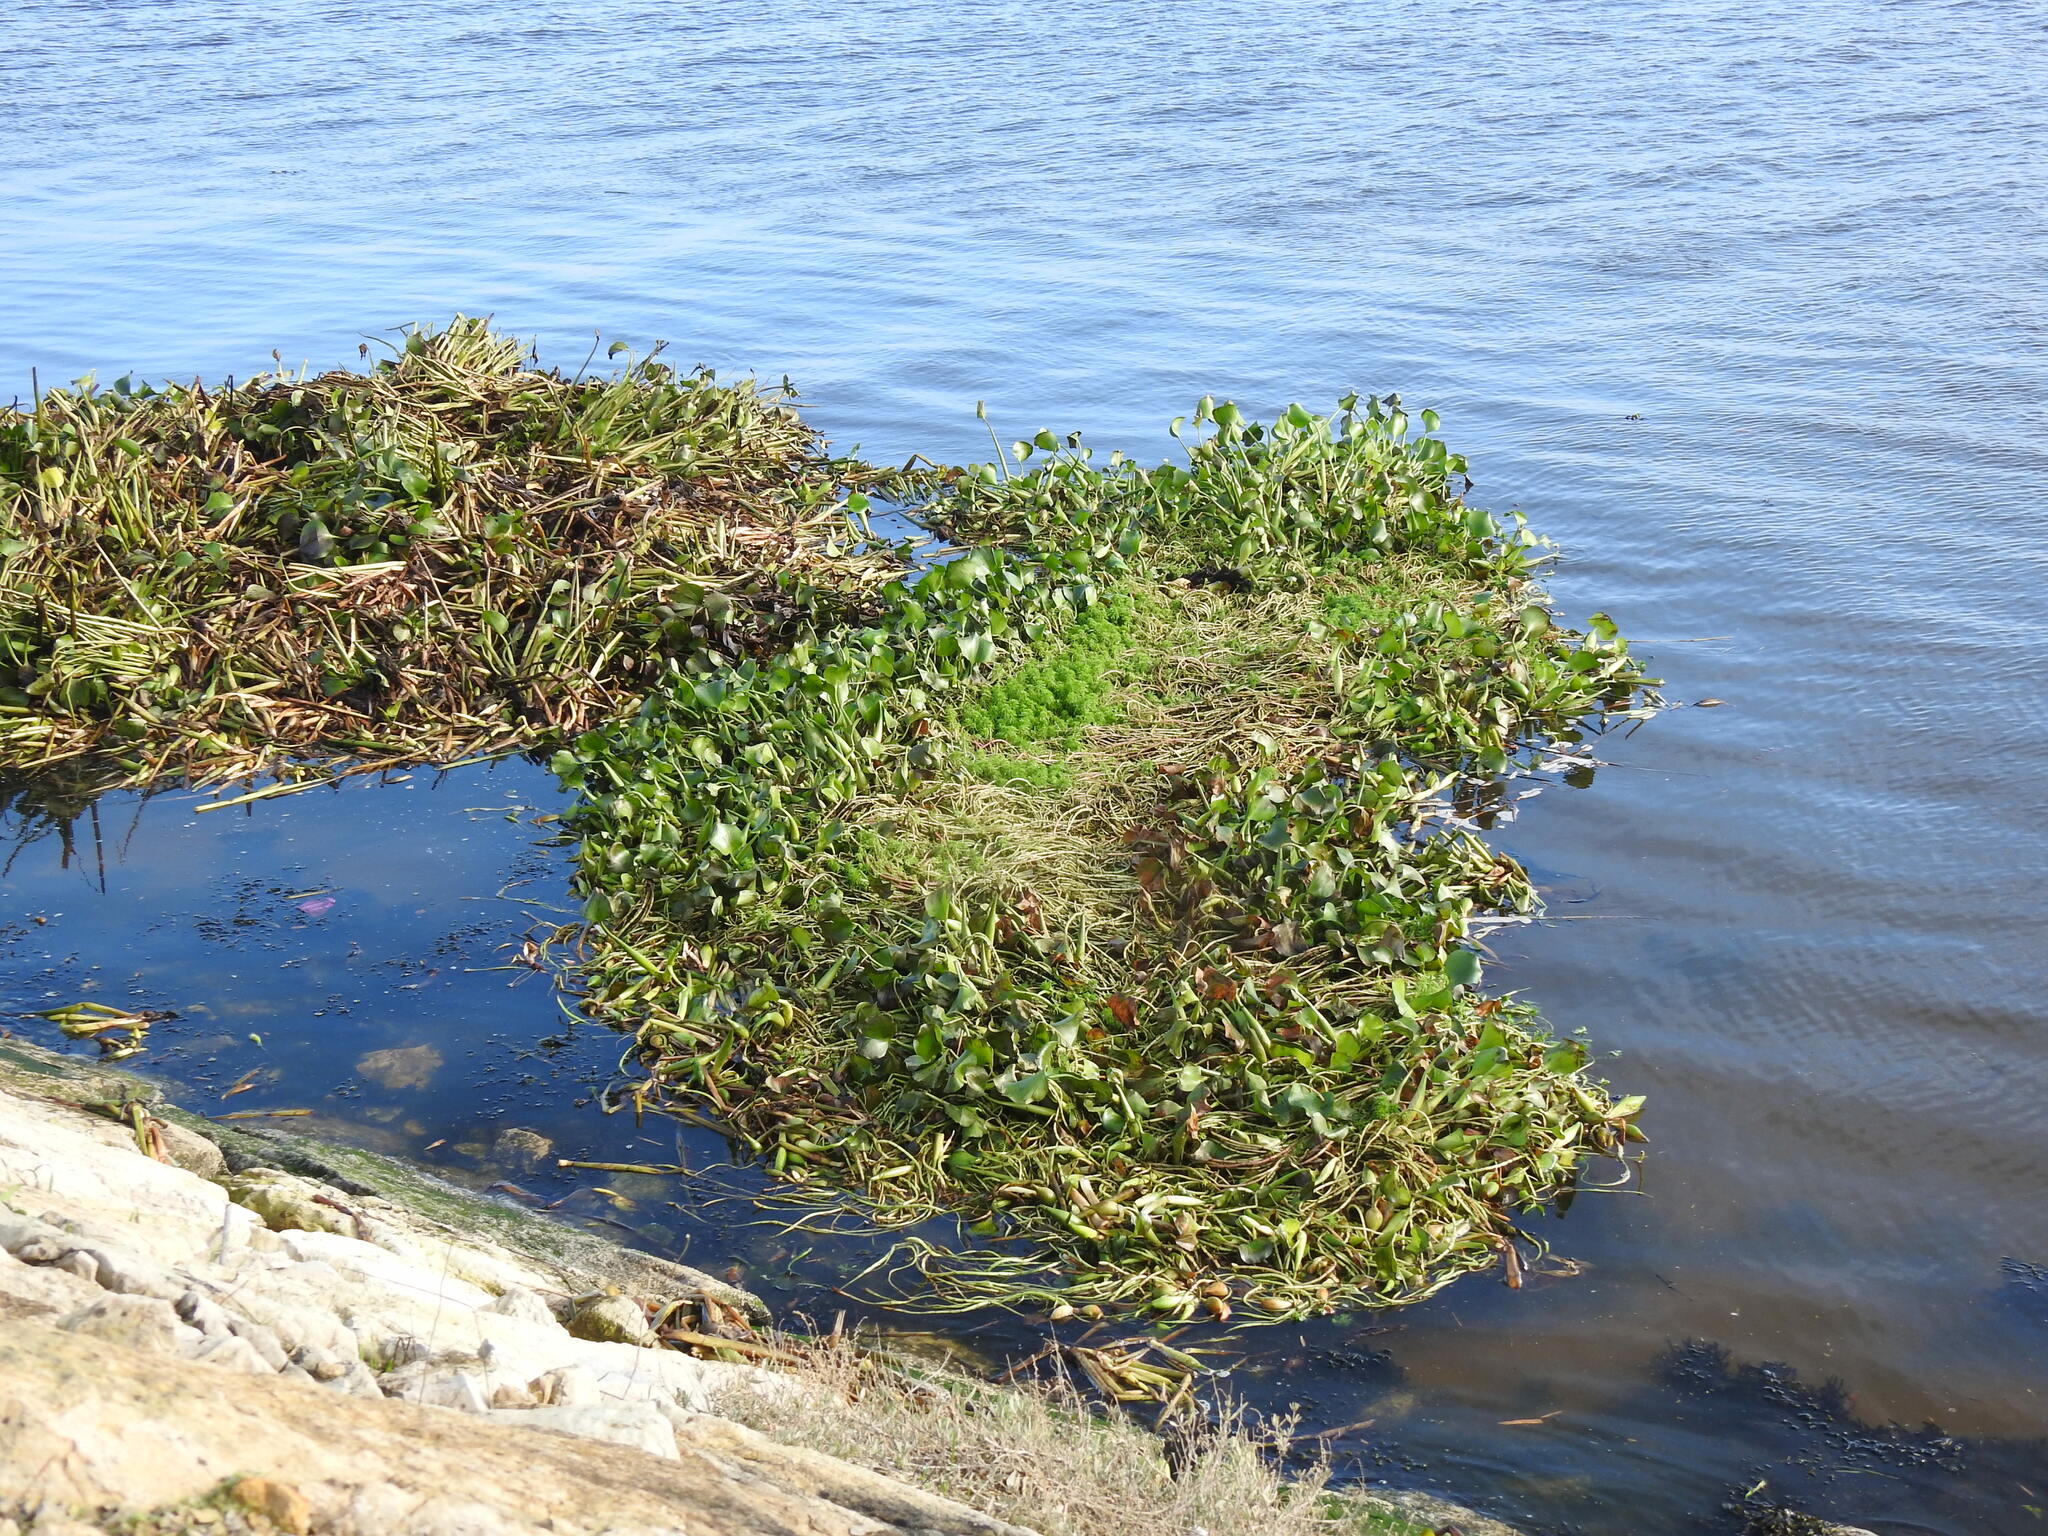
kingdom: Plantae
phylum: Tracheophyta
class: Liliopsida
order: Commelinales
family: Pontederiaceae
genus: Pontederia
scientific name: Pontederia crassipes
